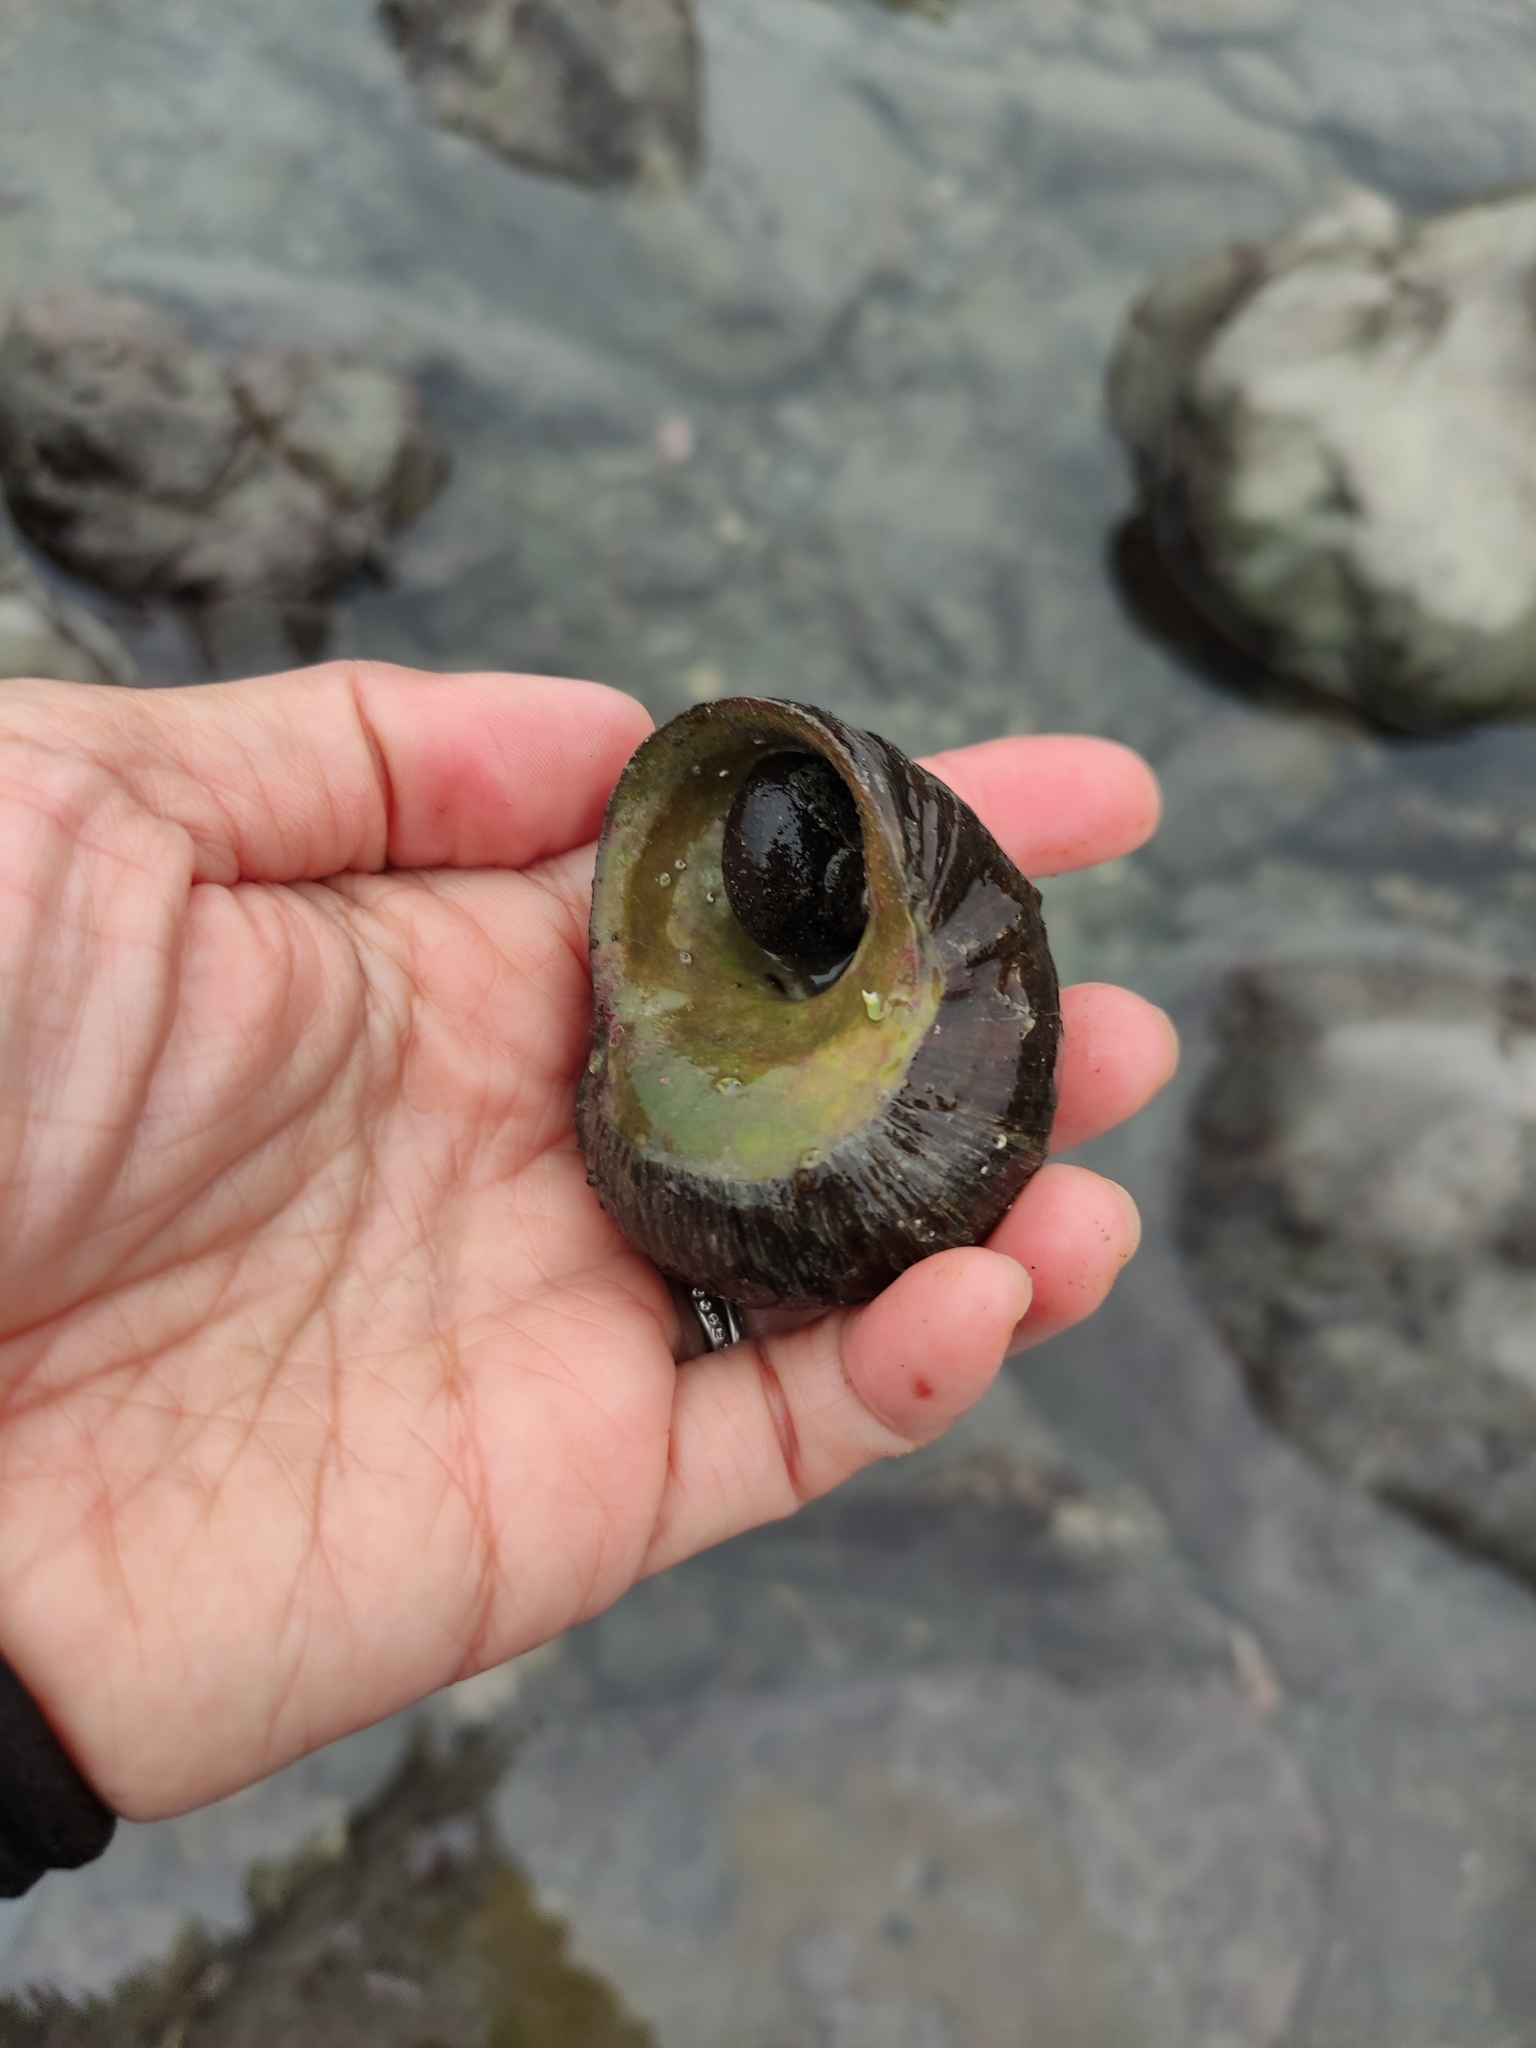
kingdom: Animalia
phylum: Mollusca
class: Gastropoda
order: Trochida
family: Turbinidae
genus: Lunella
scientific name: Lunella smaragda
